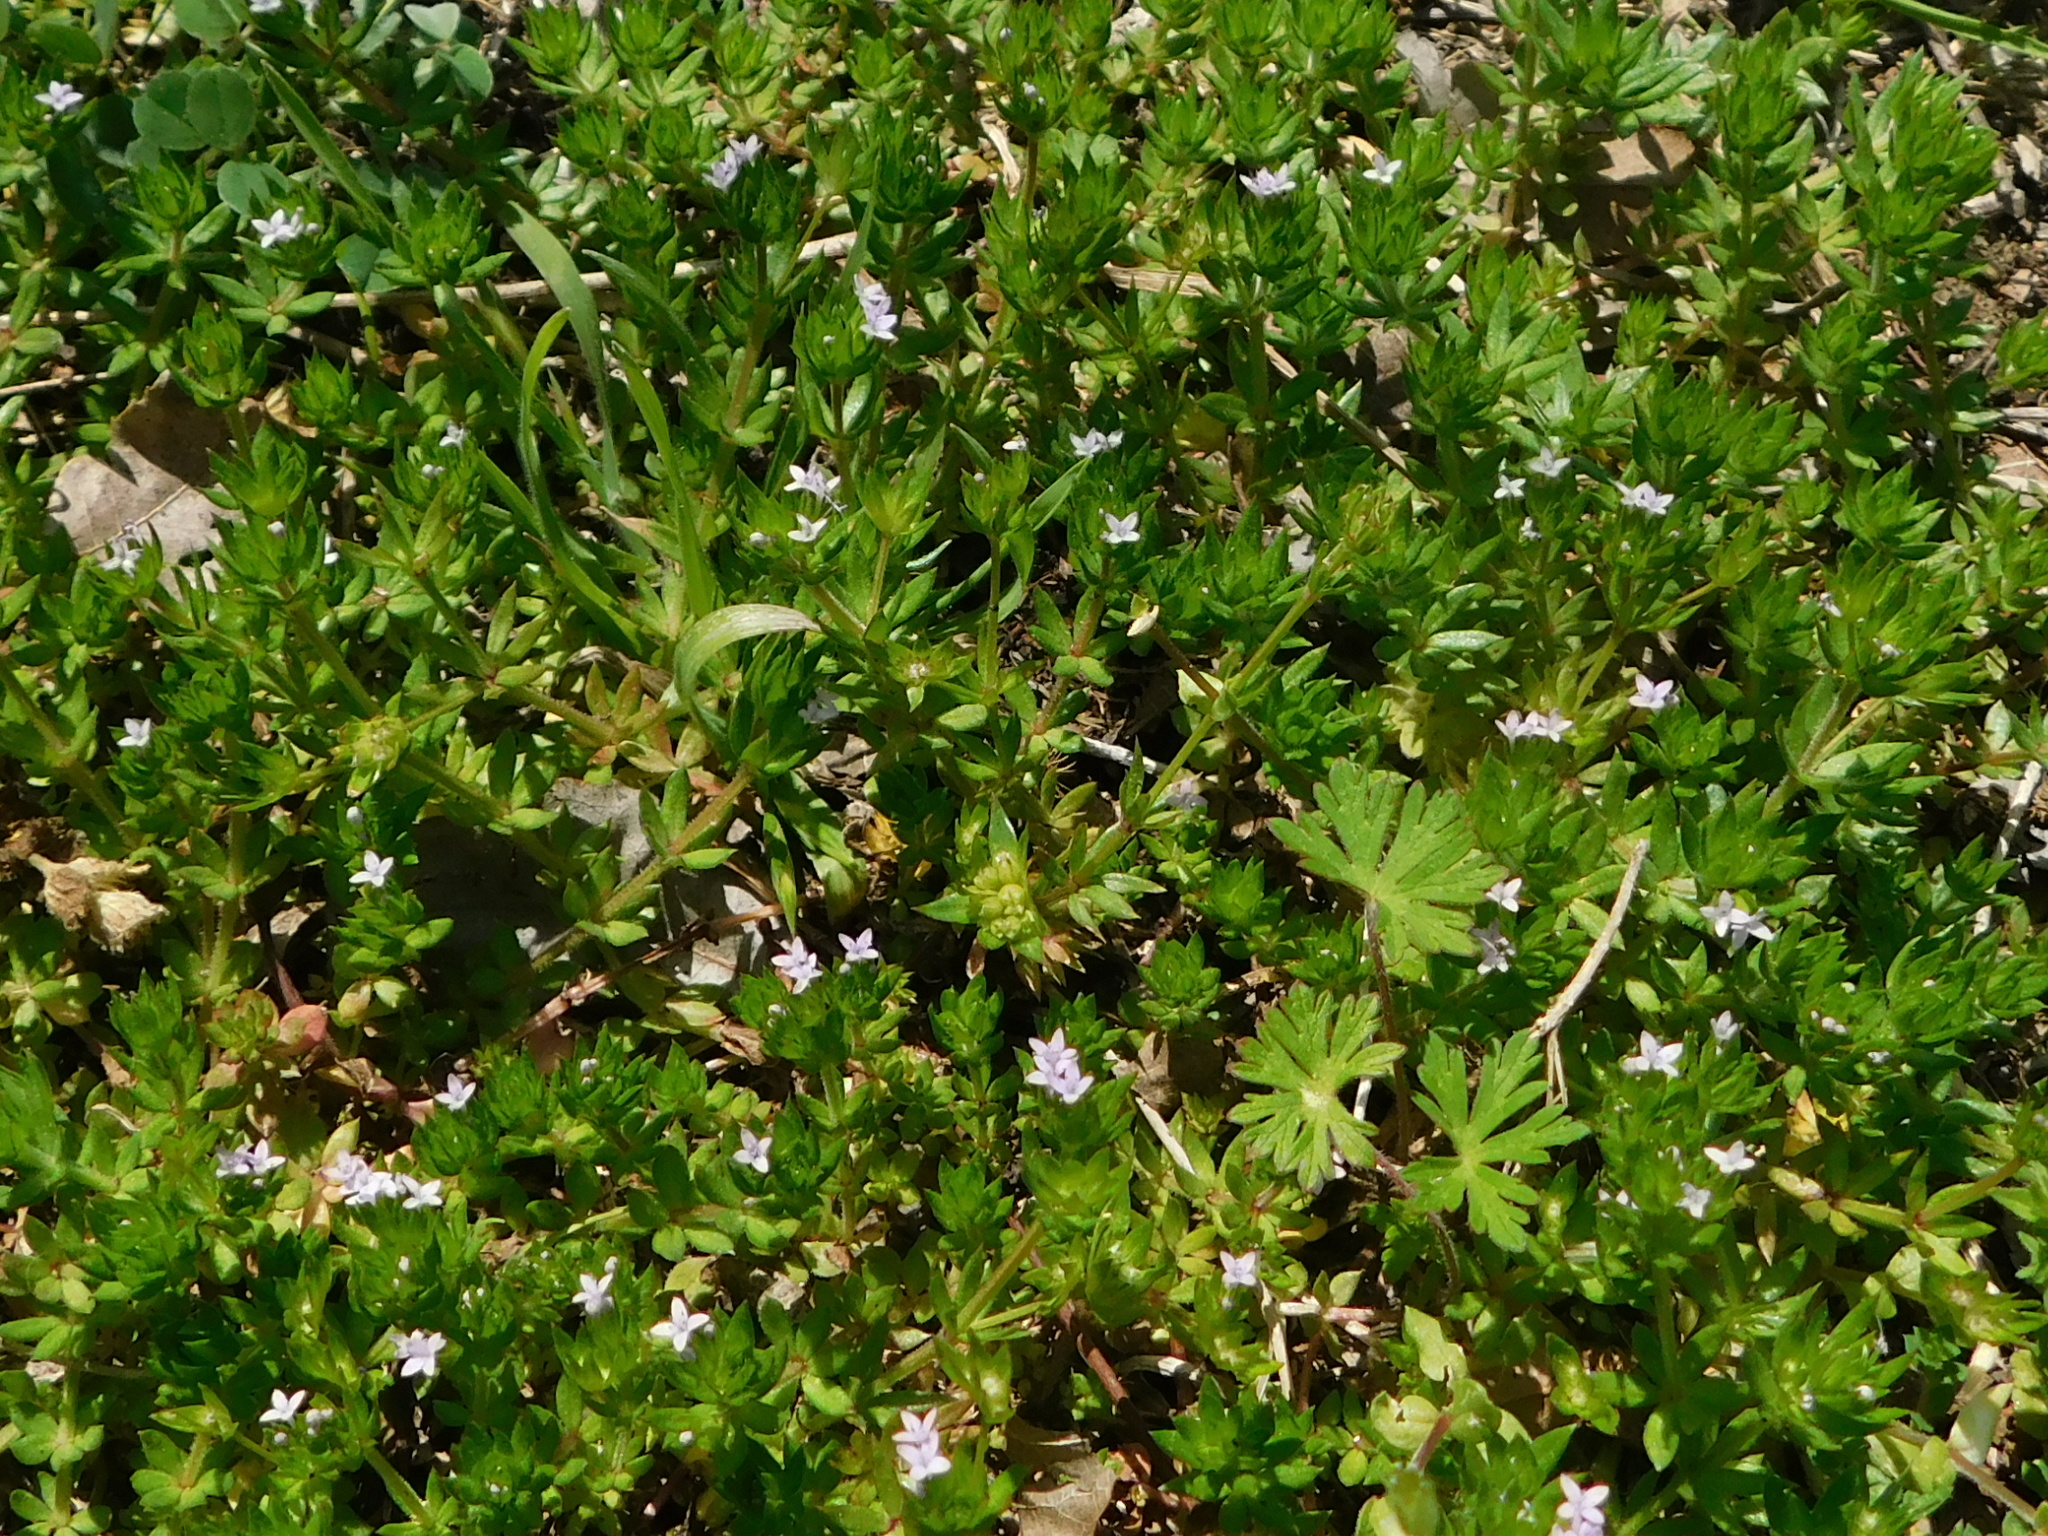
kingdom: Plantae
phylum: Tracheophyta
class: Magnoliopsida
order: Gentianales
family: Rubiaceae
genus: Sherardia
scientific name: Sherardia arvensis
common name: Field madder
